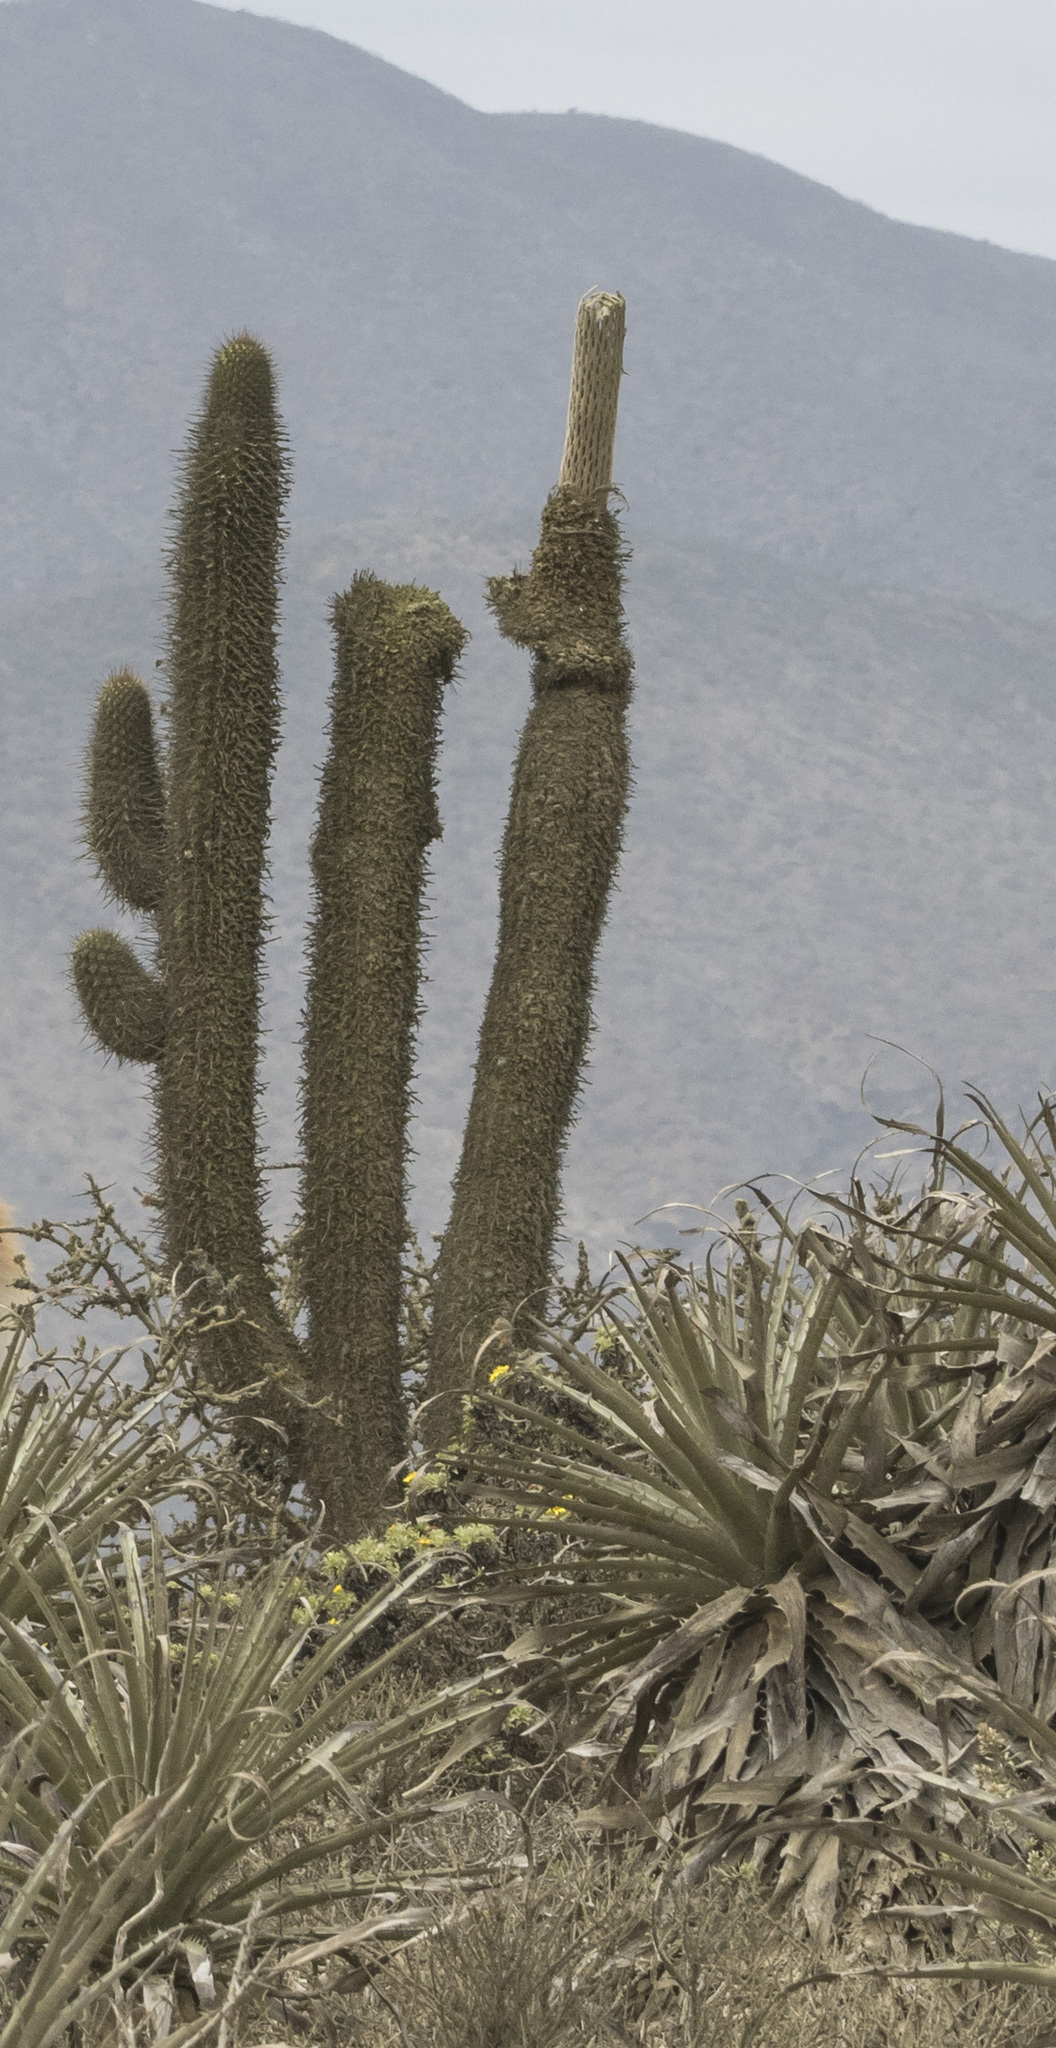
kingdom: Plantae
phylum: Tracheophyta
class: Magnoliopsida
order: Caryophyllales
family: Cactaceae
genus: Leucostele
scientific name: Leucostele skottsbergii
